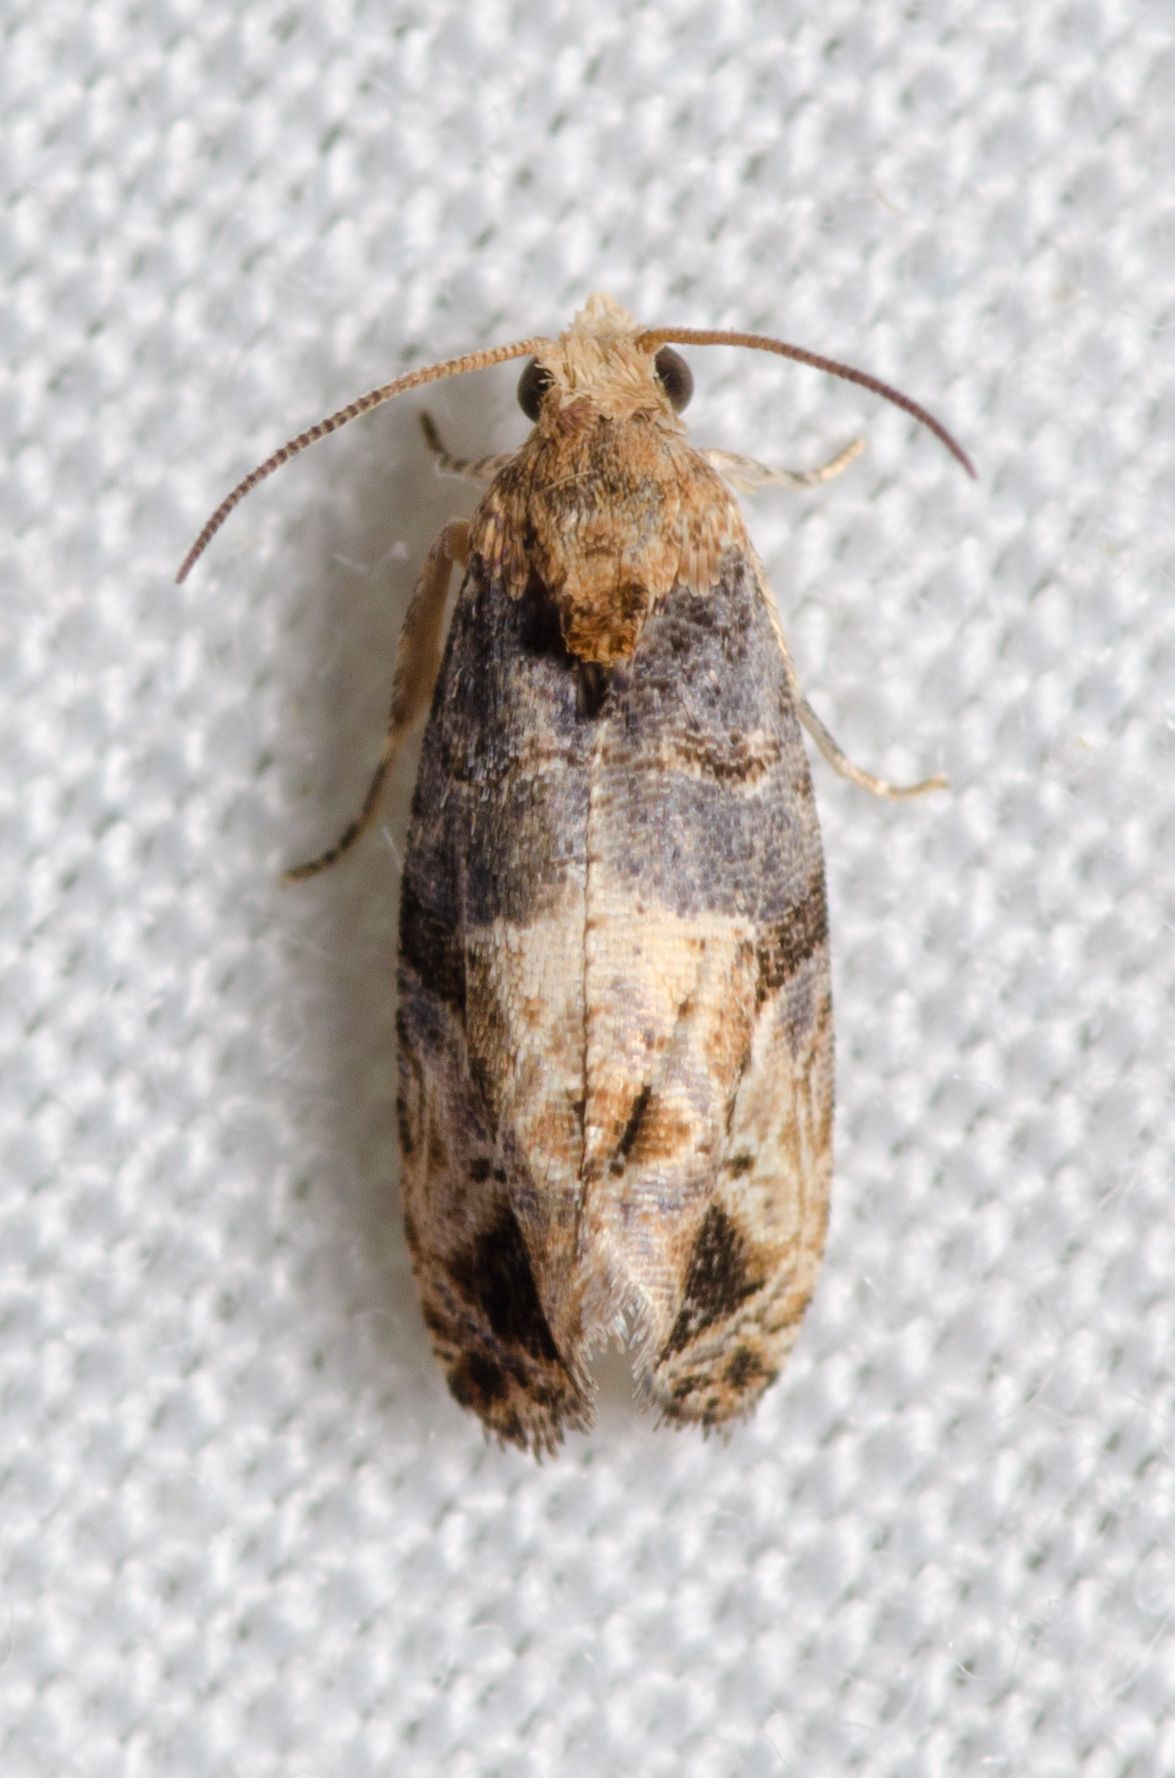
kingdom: Animalia
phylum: Arthropoda
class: Insecta
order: Lepidoptera
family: Tortricidae
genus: Paralobesia
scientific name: Paralobesia viteana
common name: Grape berry moth
